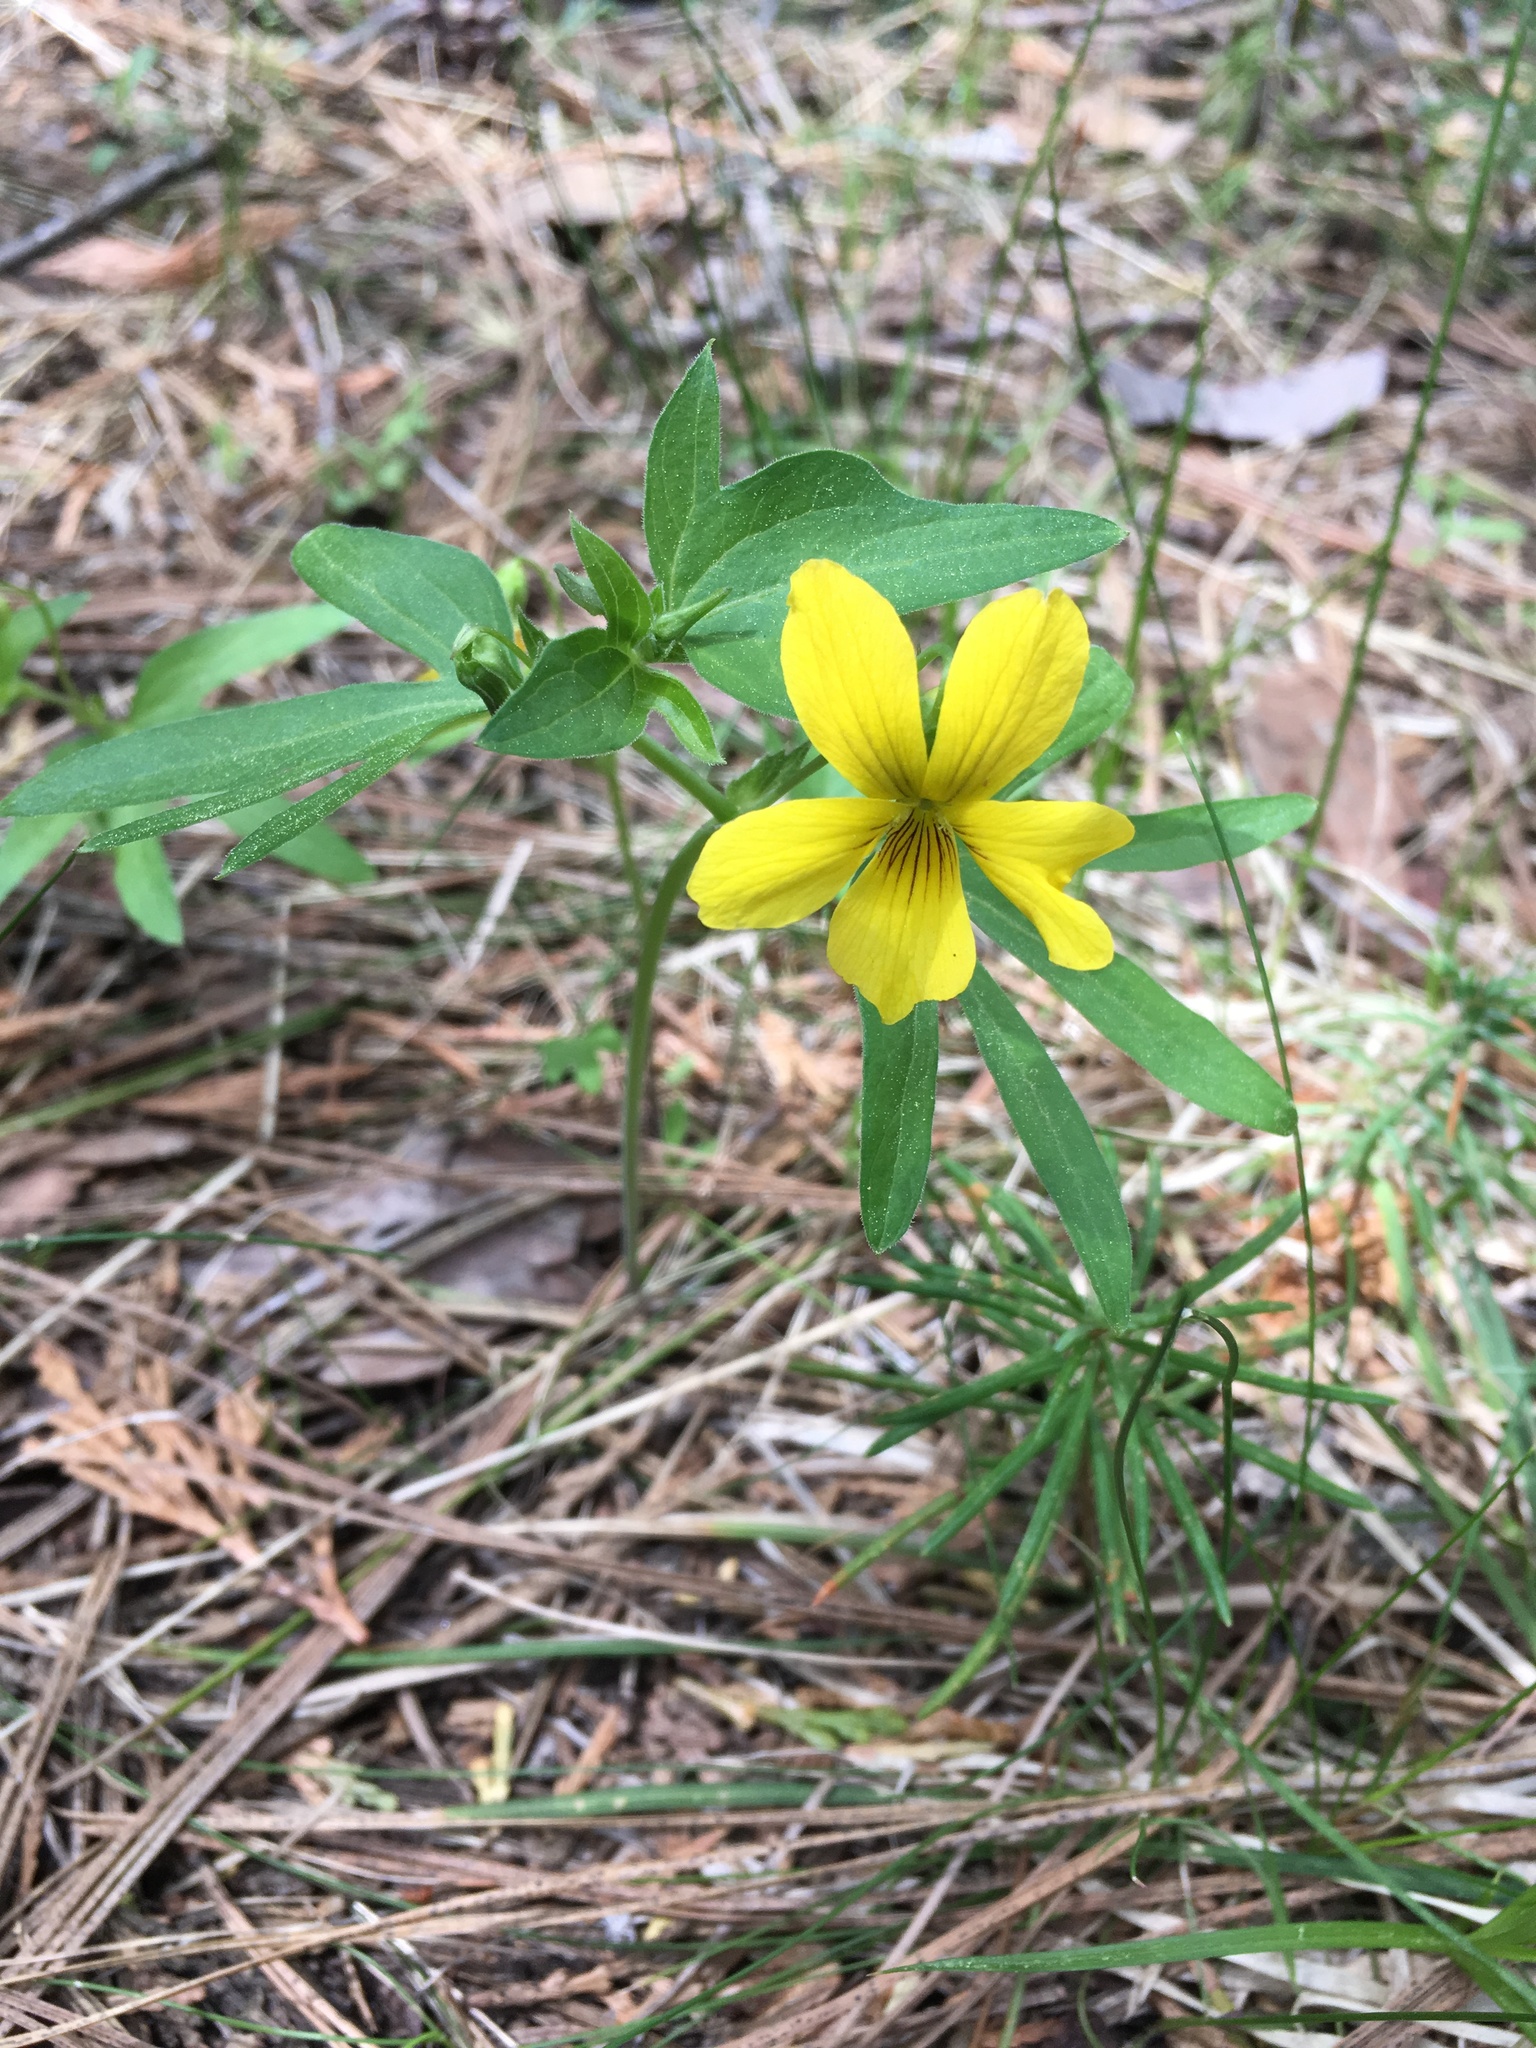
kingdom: Plantae
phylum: Tracheophyta
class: Magnoliopsida
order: Malpighiales
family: Violaceae
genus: Viola
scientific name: Viola lobata
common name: Pine violet
